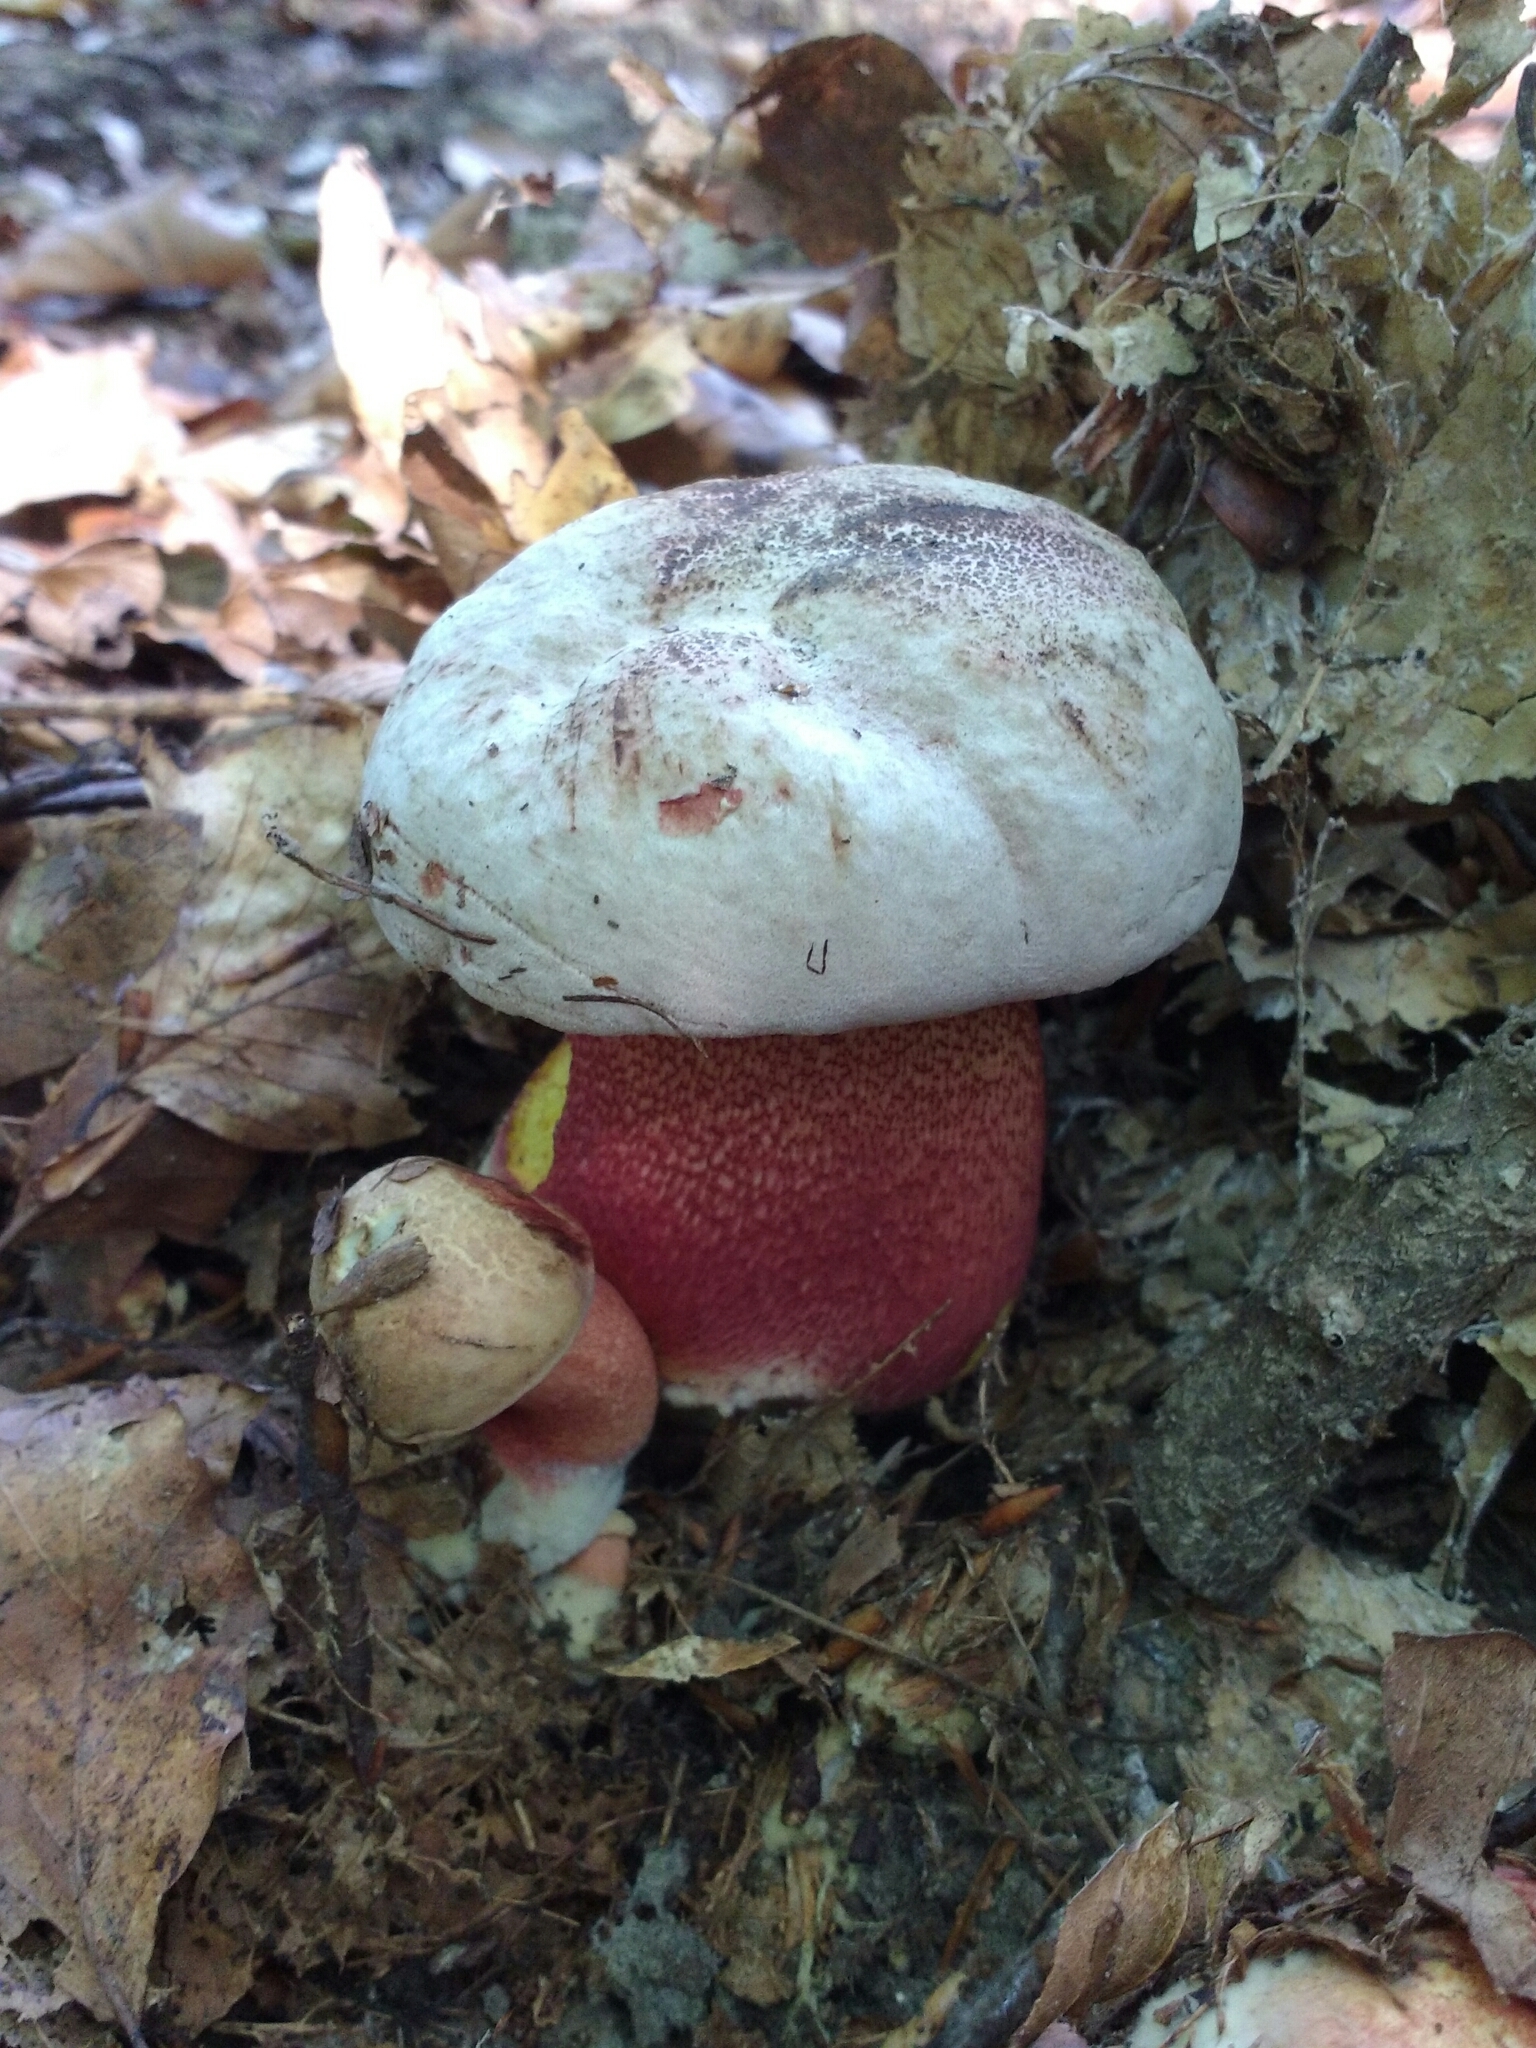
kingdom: Fungi
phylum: Basidiomycota
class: Agaricomycetes
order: Boletales
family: Boletaceae
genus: Rubroboletus
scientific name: Rubroboletus rhodoxanthus
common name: Ruddy bolete
